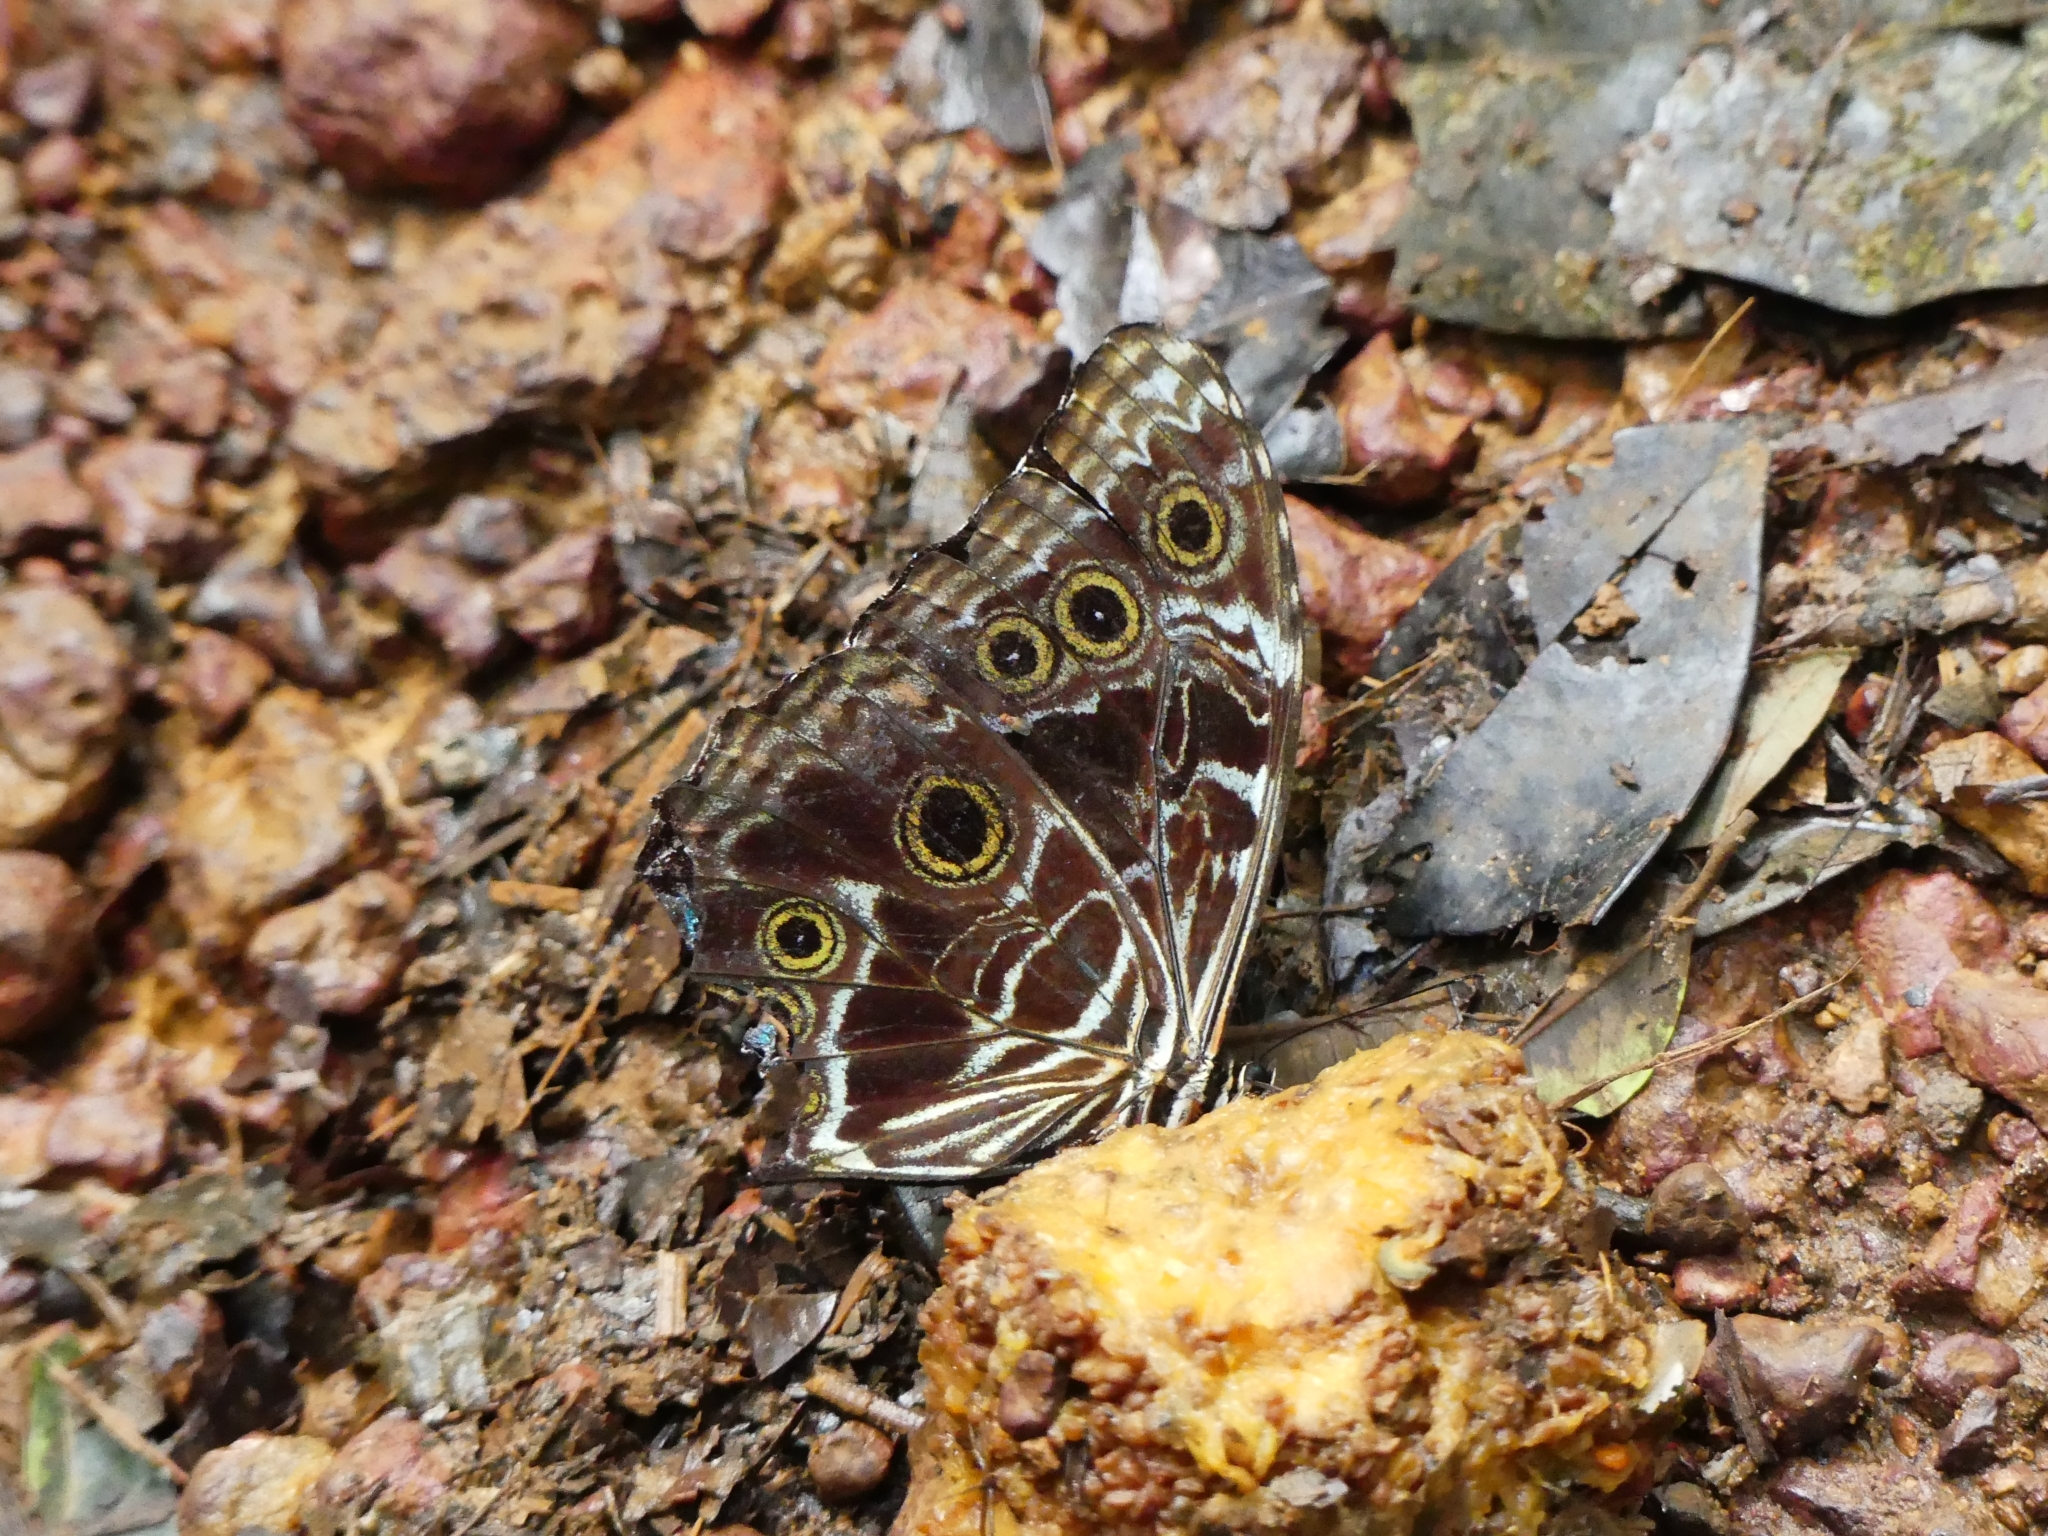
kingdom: Animalia
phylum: Arthropoda
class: Insecta
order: Lepidoptera
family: Nymphalidae
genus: Morpho
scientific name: Morpho deidamia
